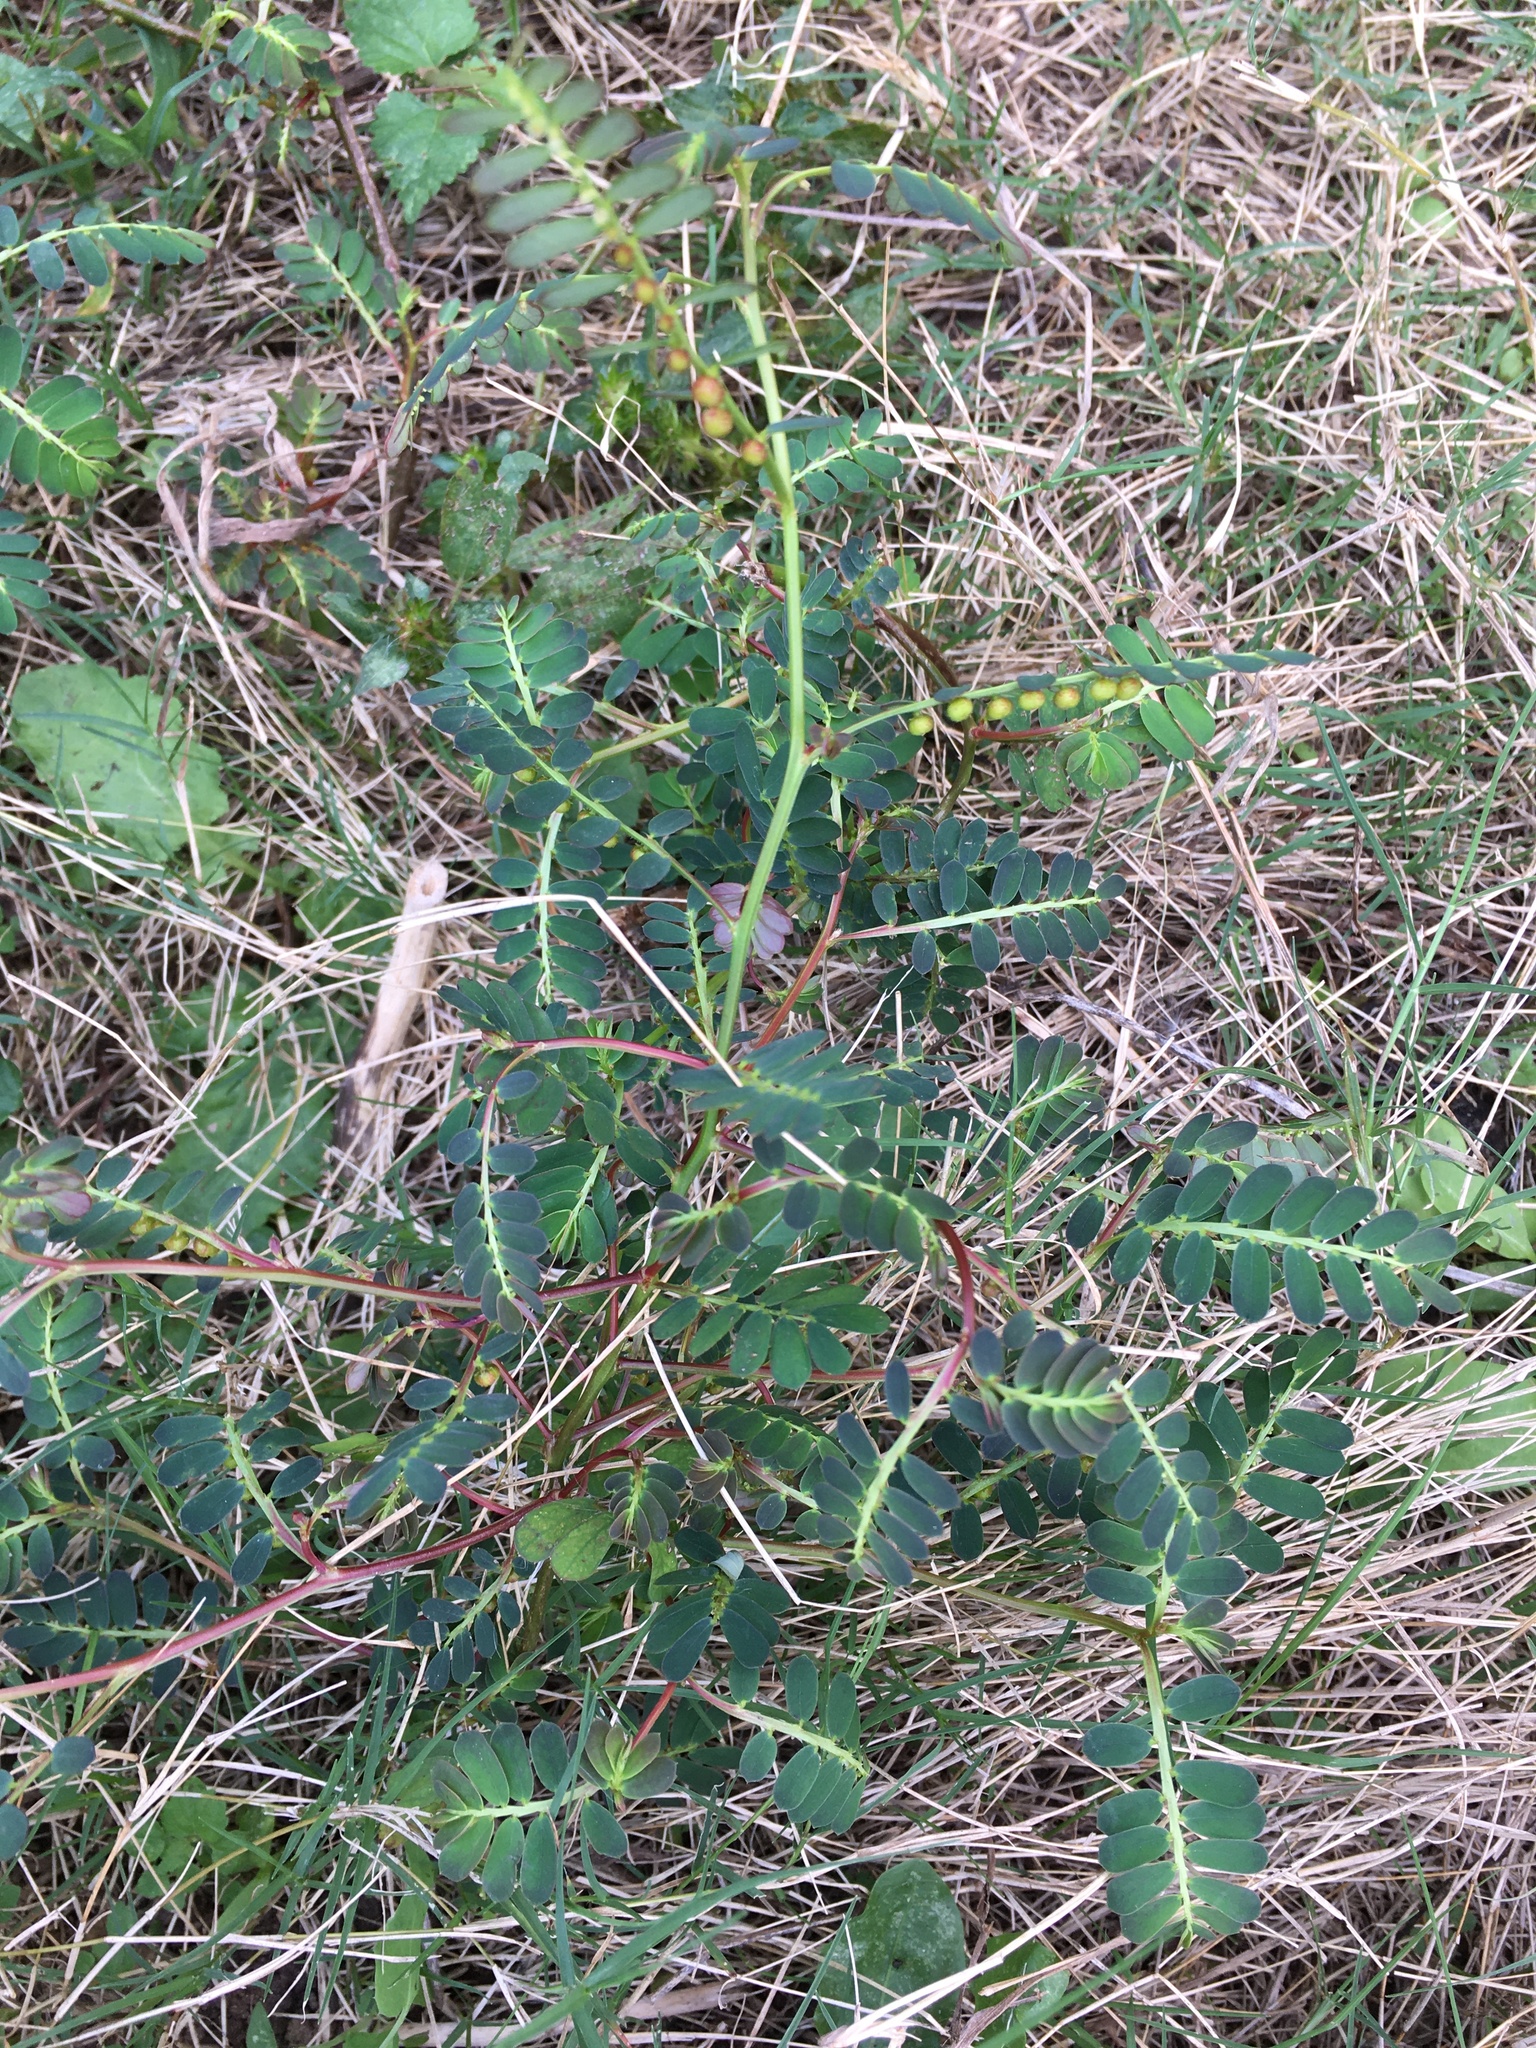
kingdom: Plantae
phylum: Tracheophyta
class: Magnoliopsida
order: Malpighiales
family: Phyllanthaceae
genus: Phyllanthus
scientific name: Phyllanthus urinaria
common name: Chamber bitter
